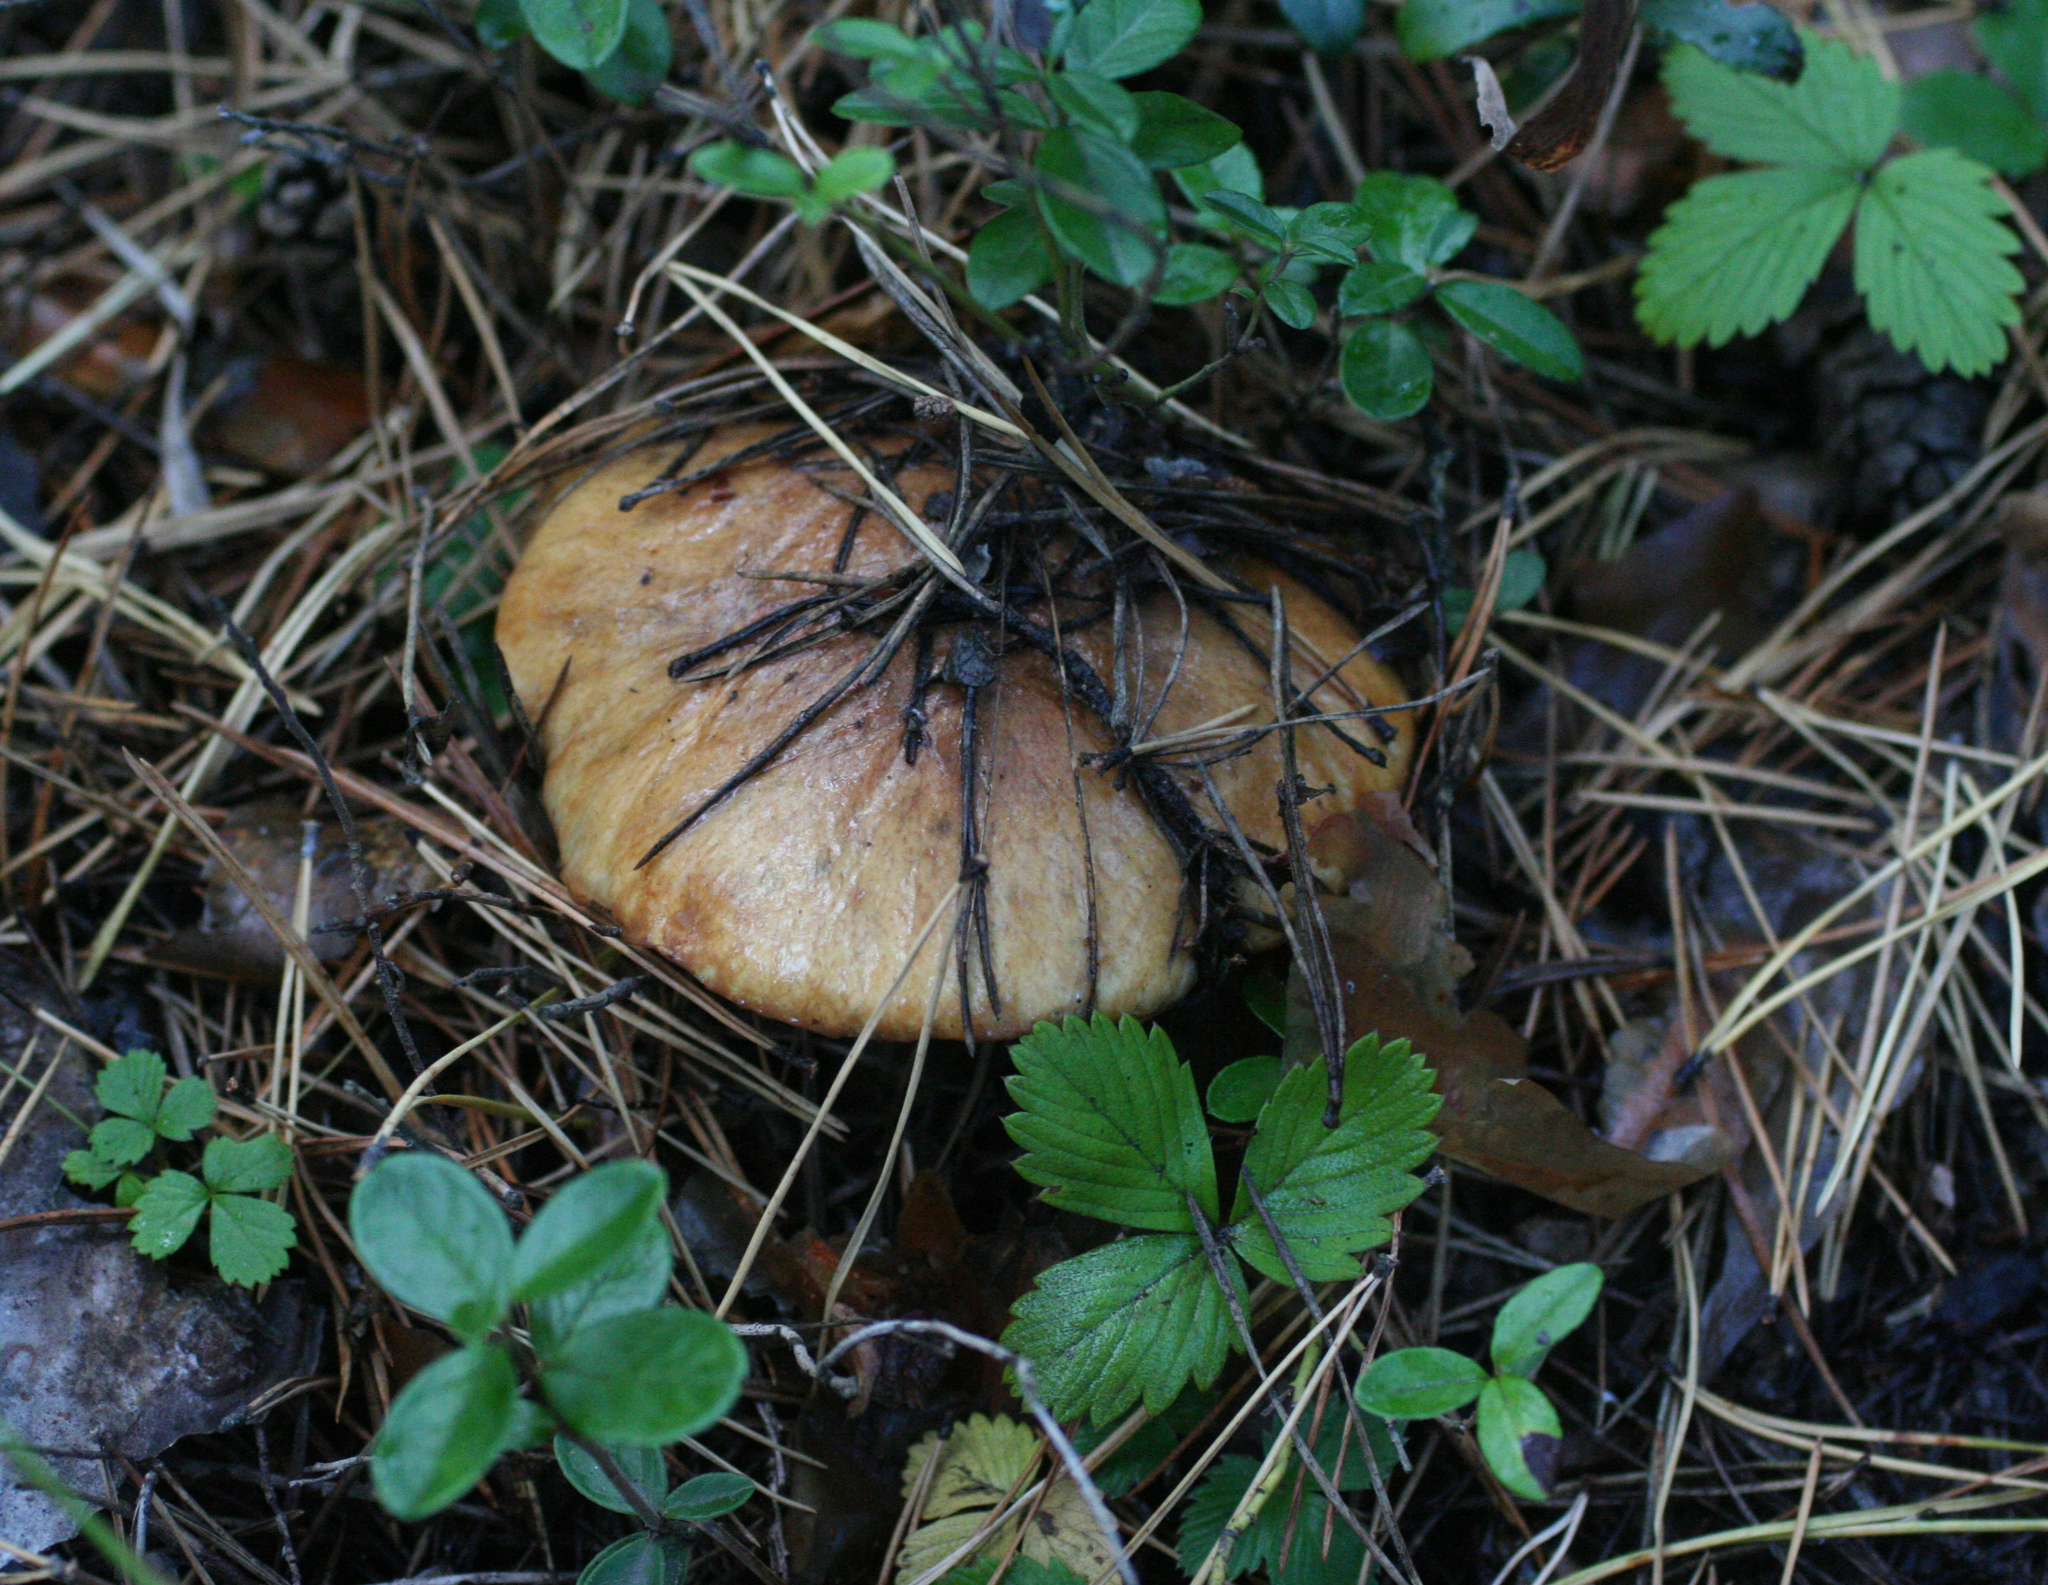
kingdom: Fungi
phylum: Basidiomycota
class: Agaricomycetes
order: Boletales
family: Suillaceae
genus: Suillus
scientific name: Suillus luteus
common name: Slippery jack
